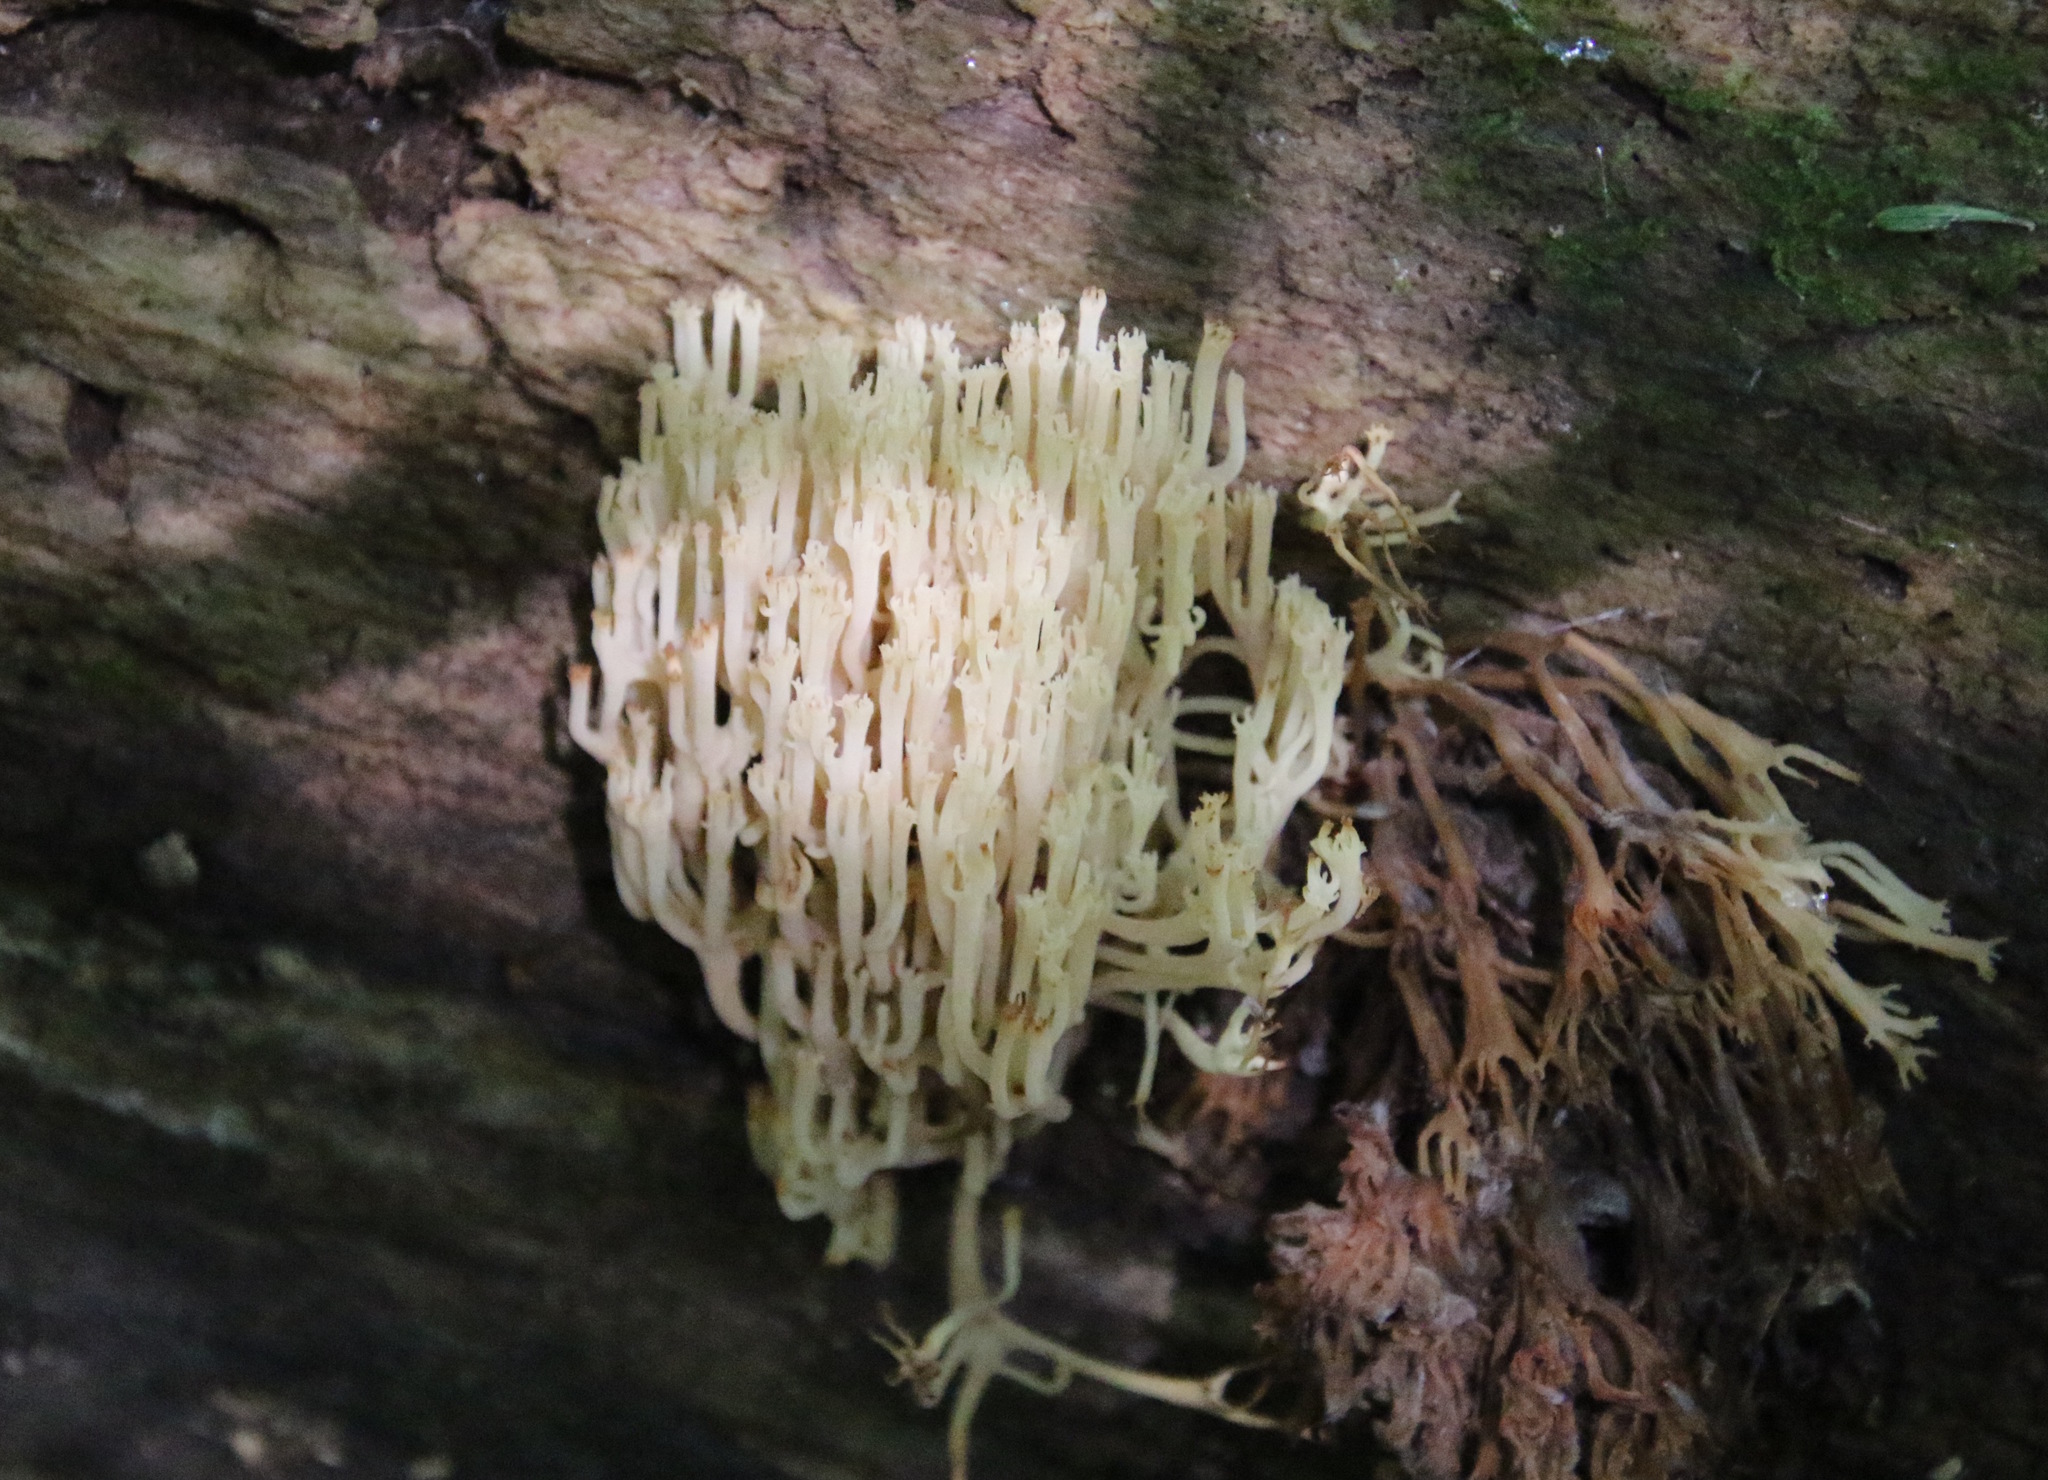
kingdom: Fungi
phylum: Basidiomycota
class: Agaricomycetes
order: Russulales
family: Auriscalpiaceae
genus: Artomyces
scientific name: Artomyces pyxidatus
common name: Crown-tipped coral fungus
